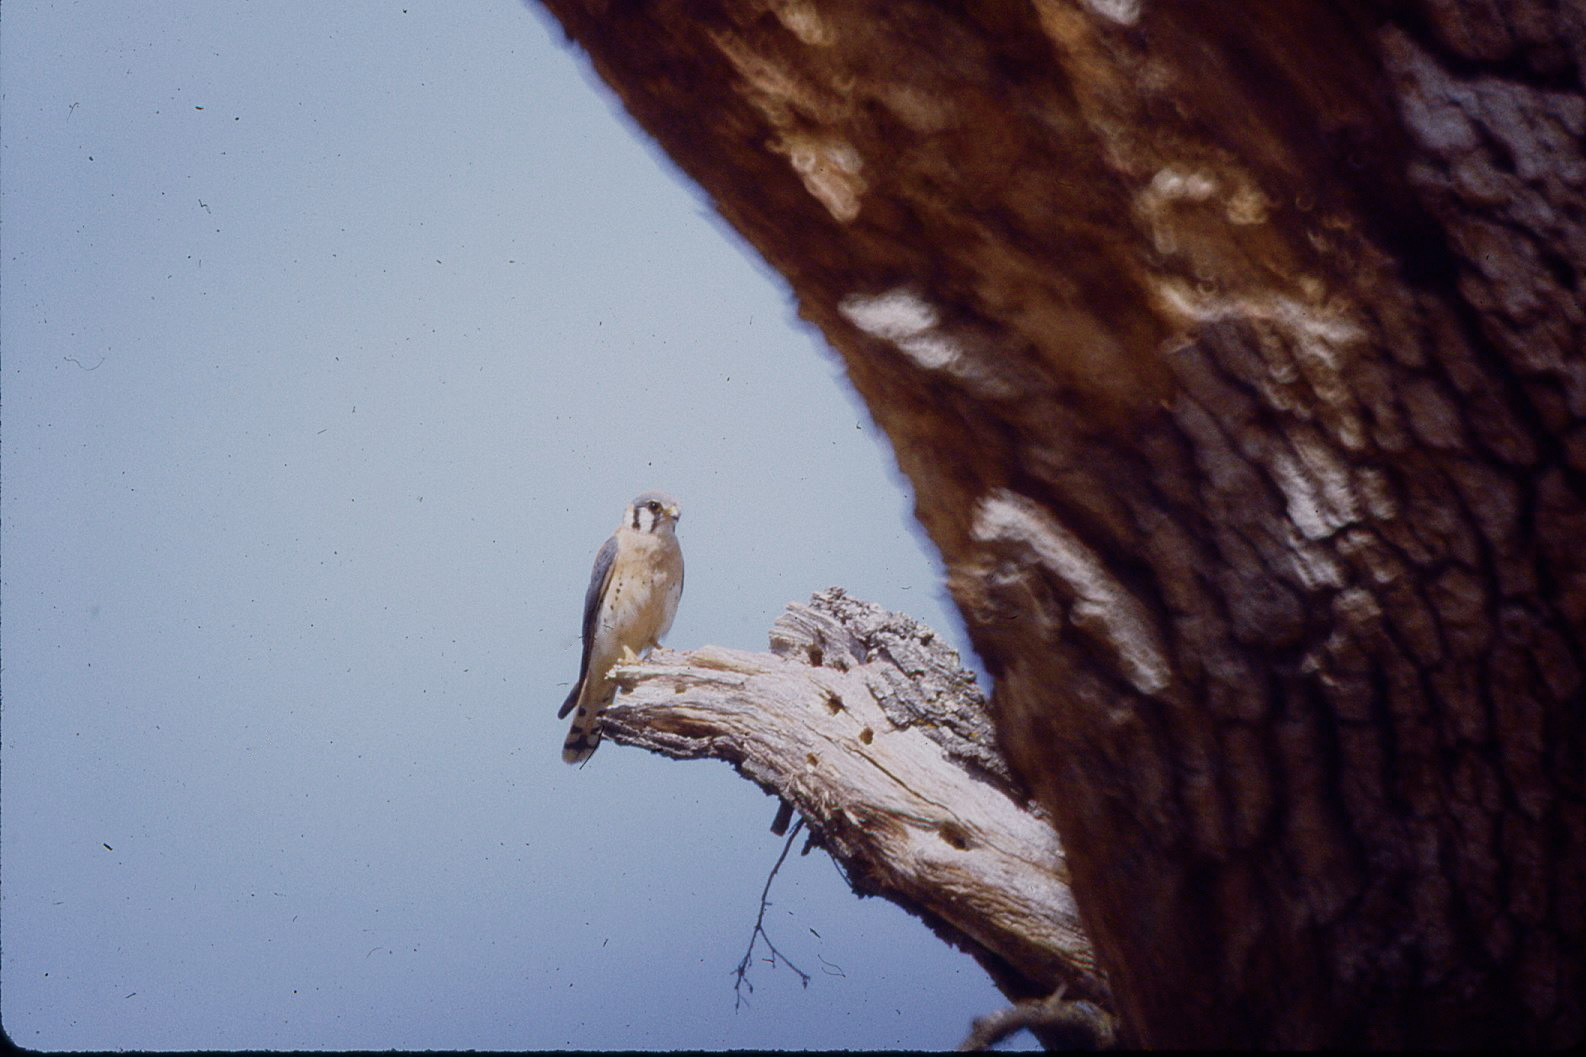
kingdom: Animalia
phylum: Chordata
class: Aves
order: Falconiformes
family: Falconidae
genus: Falco
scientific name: Falco sparverius
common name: American kestrel
